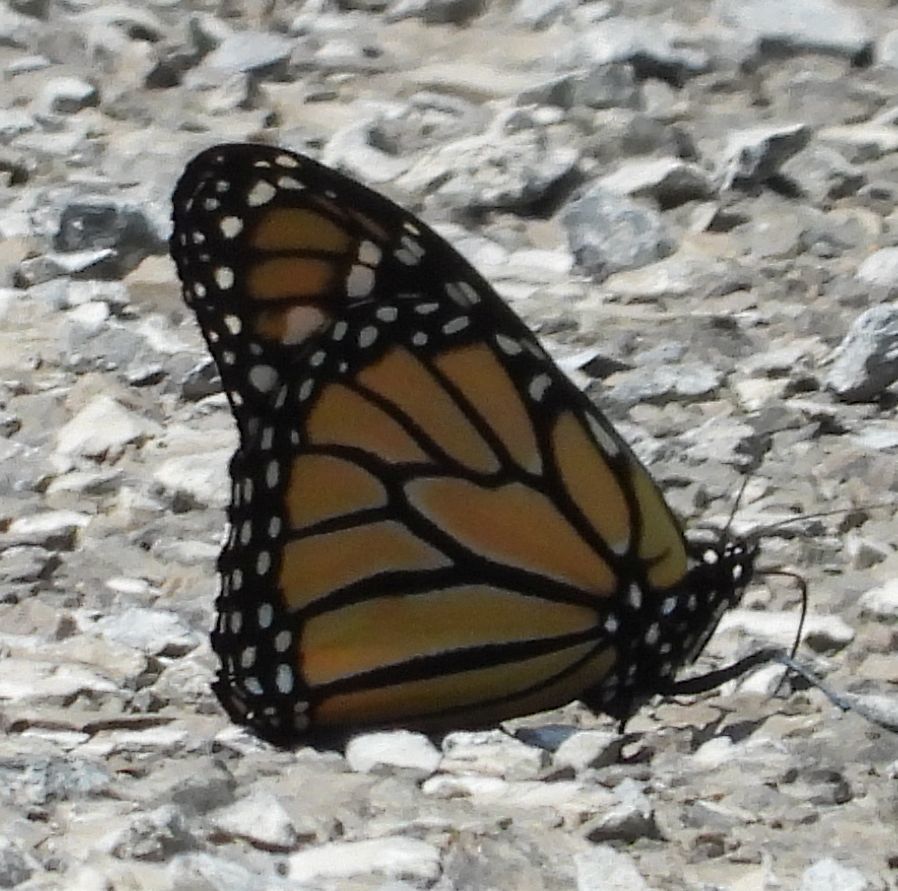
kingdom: Animalia
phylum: Arthropoda
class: Insecta
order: Lepidoptera
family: Nymphalidae
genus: Danaus
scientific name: Danaus plexippus
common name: Monarch
